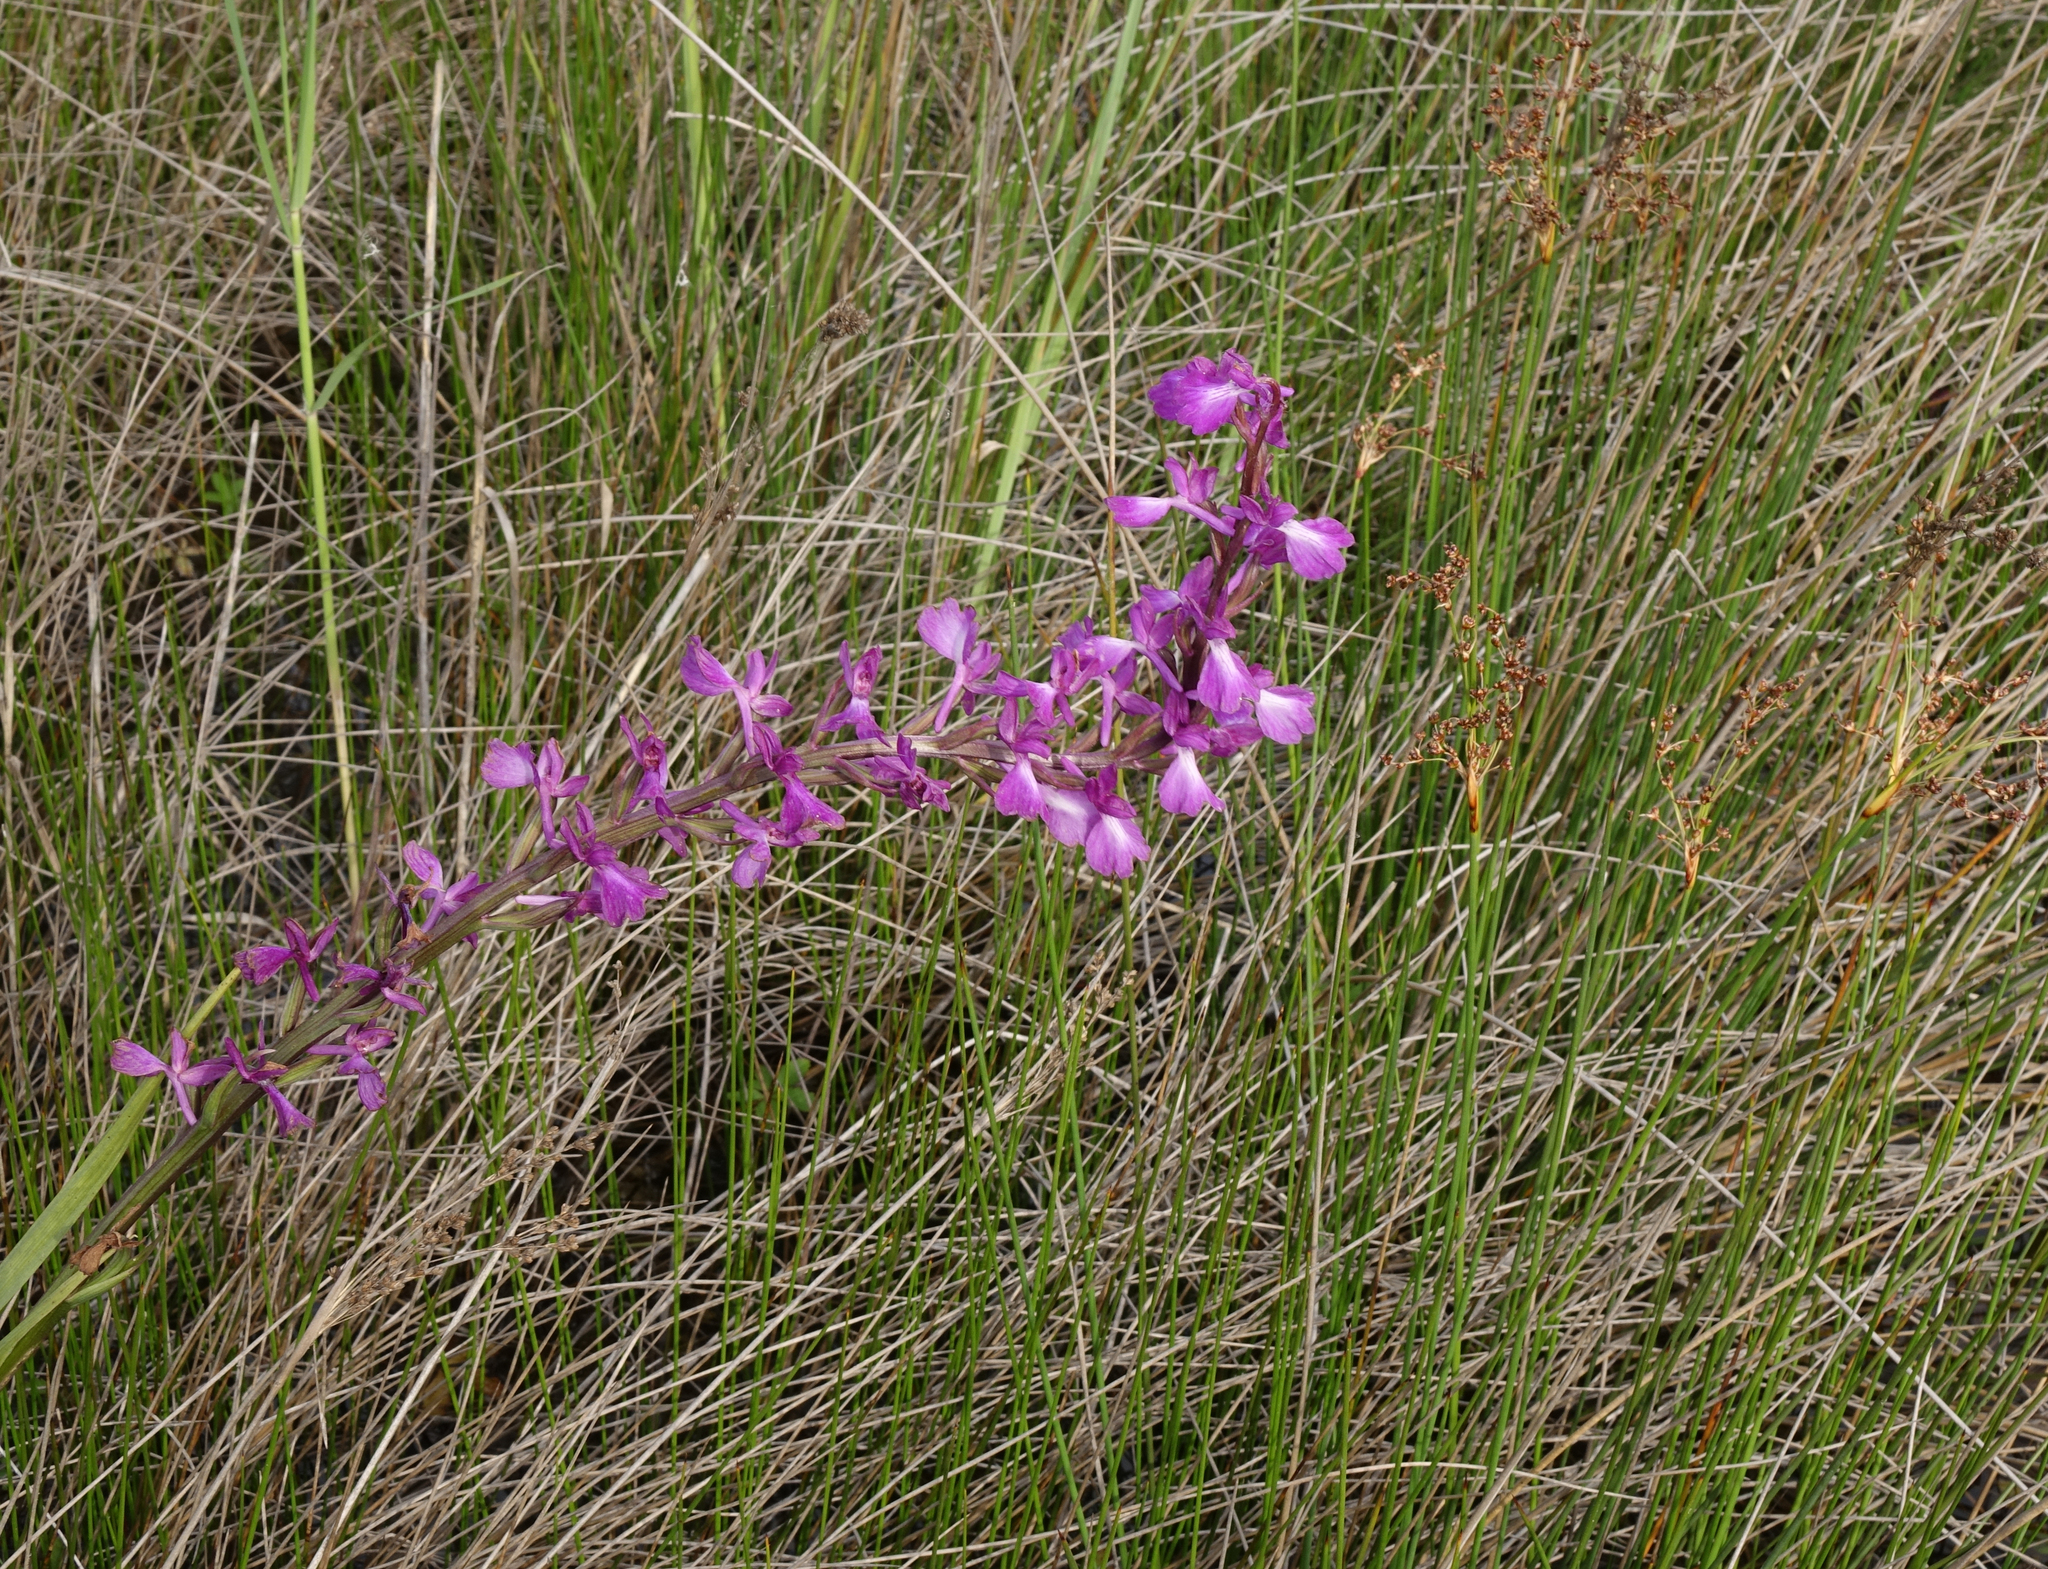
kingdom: Plantae
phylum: Tracheophyta
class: Liliopsida
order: Asparagales
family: Orchidaceae
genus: Anacamptis
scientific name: Anacamptis palustris
